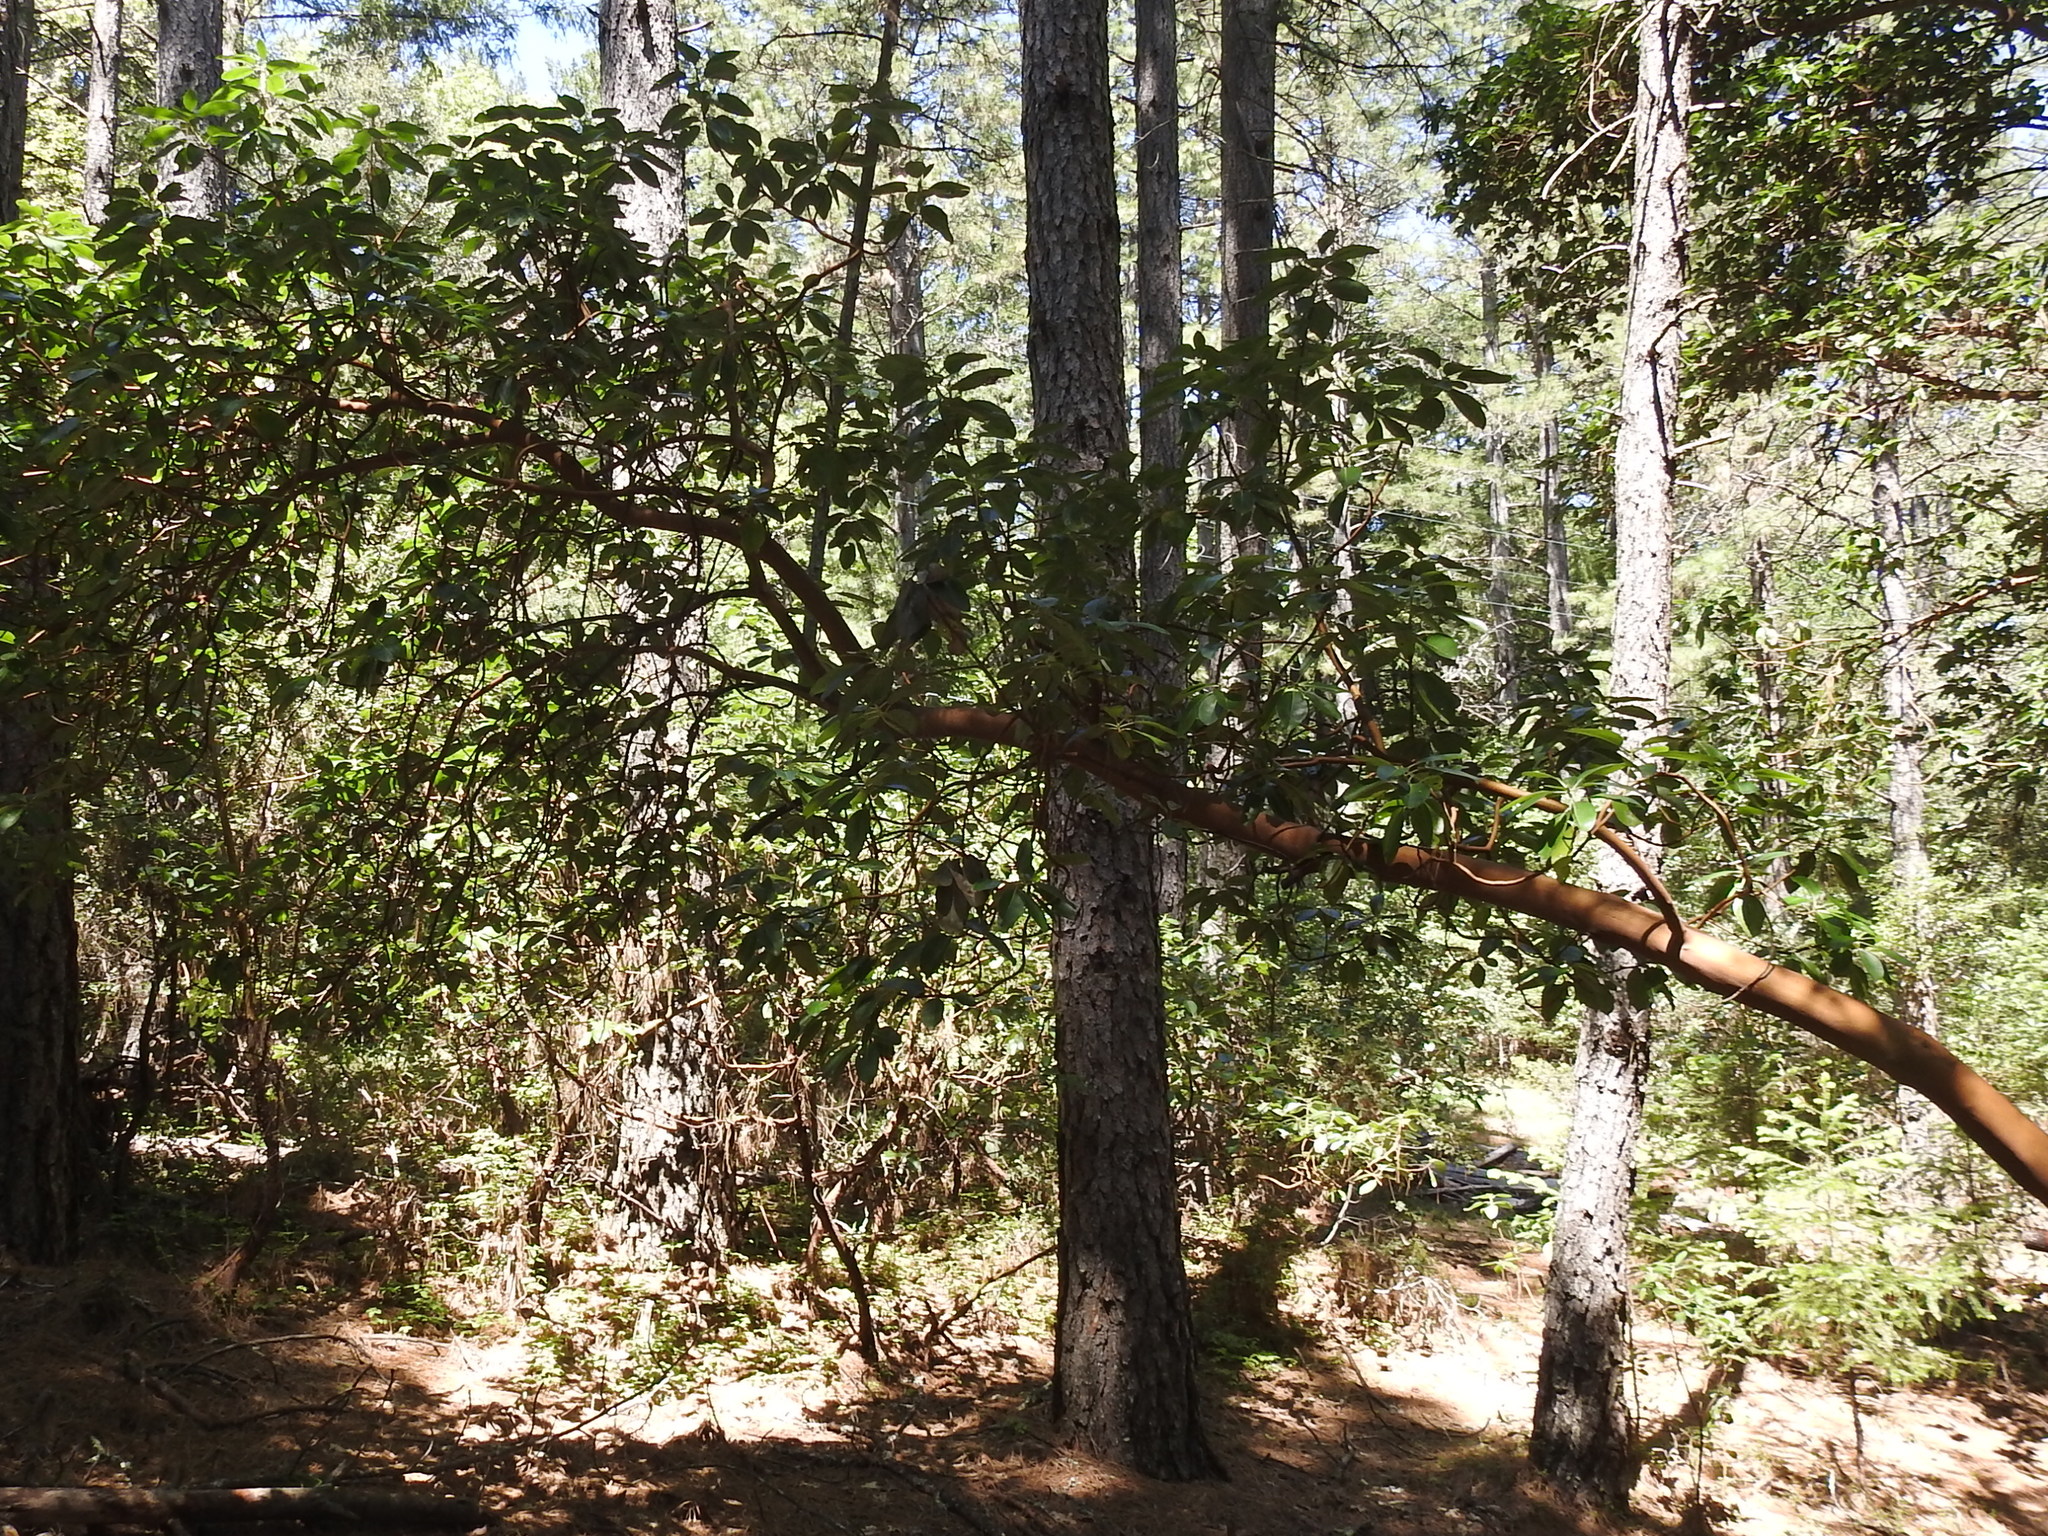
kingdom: Plantae
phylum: Tracheophyta
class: Magnoliopsida
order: Ericales
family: Ericaceae
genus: Arbutus
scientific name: Arbutus menziesii
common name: Pacific madrone
